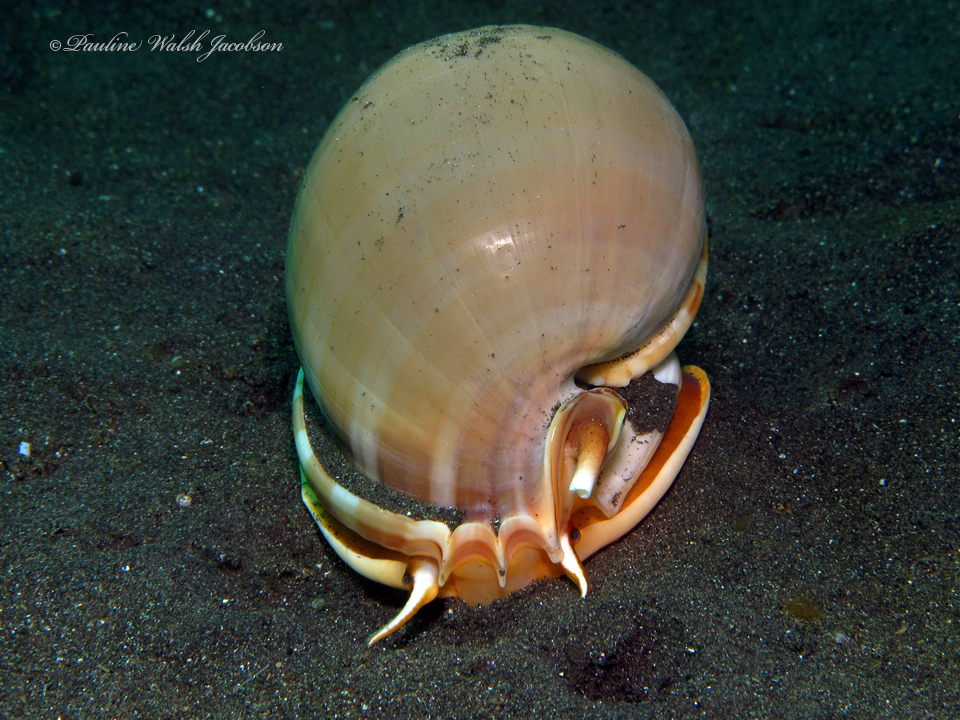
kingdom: Animalia
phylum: Mollusca
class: Gastropoda
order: Littorinimorpha
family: Cassidae
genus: Phalium
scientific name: Phalium glaucum
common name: Grey bonnet
